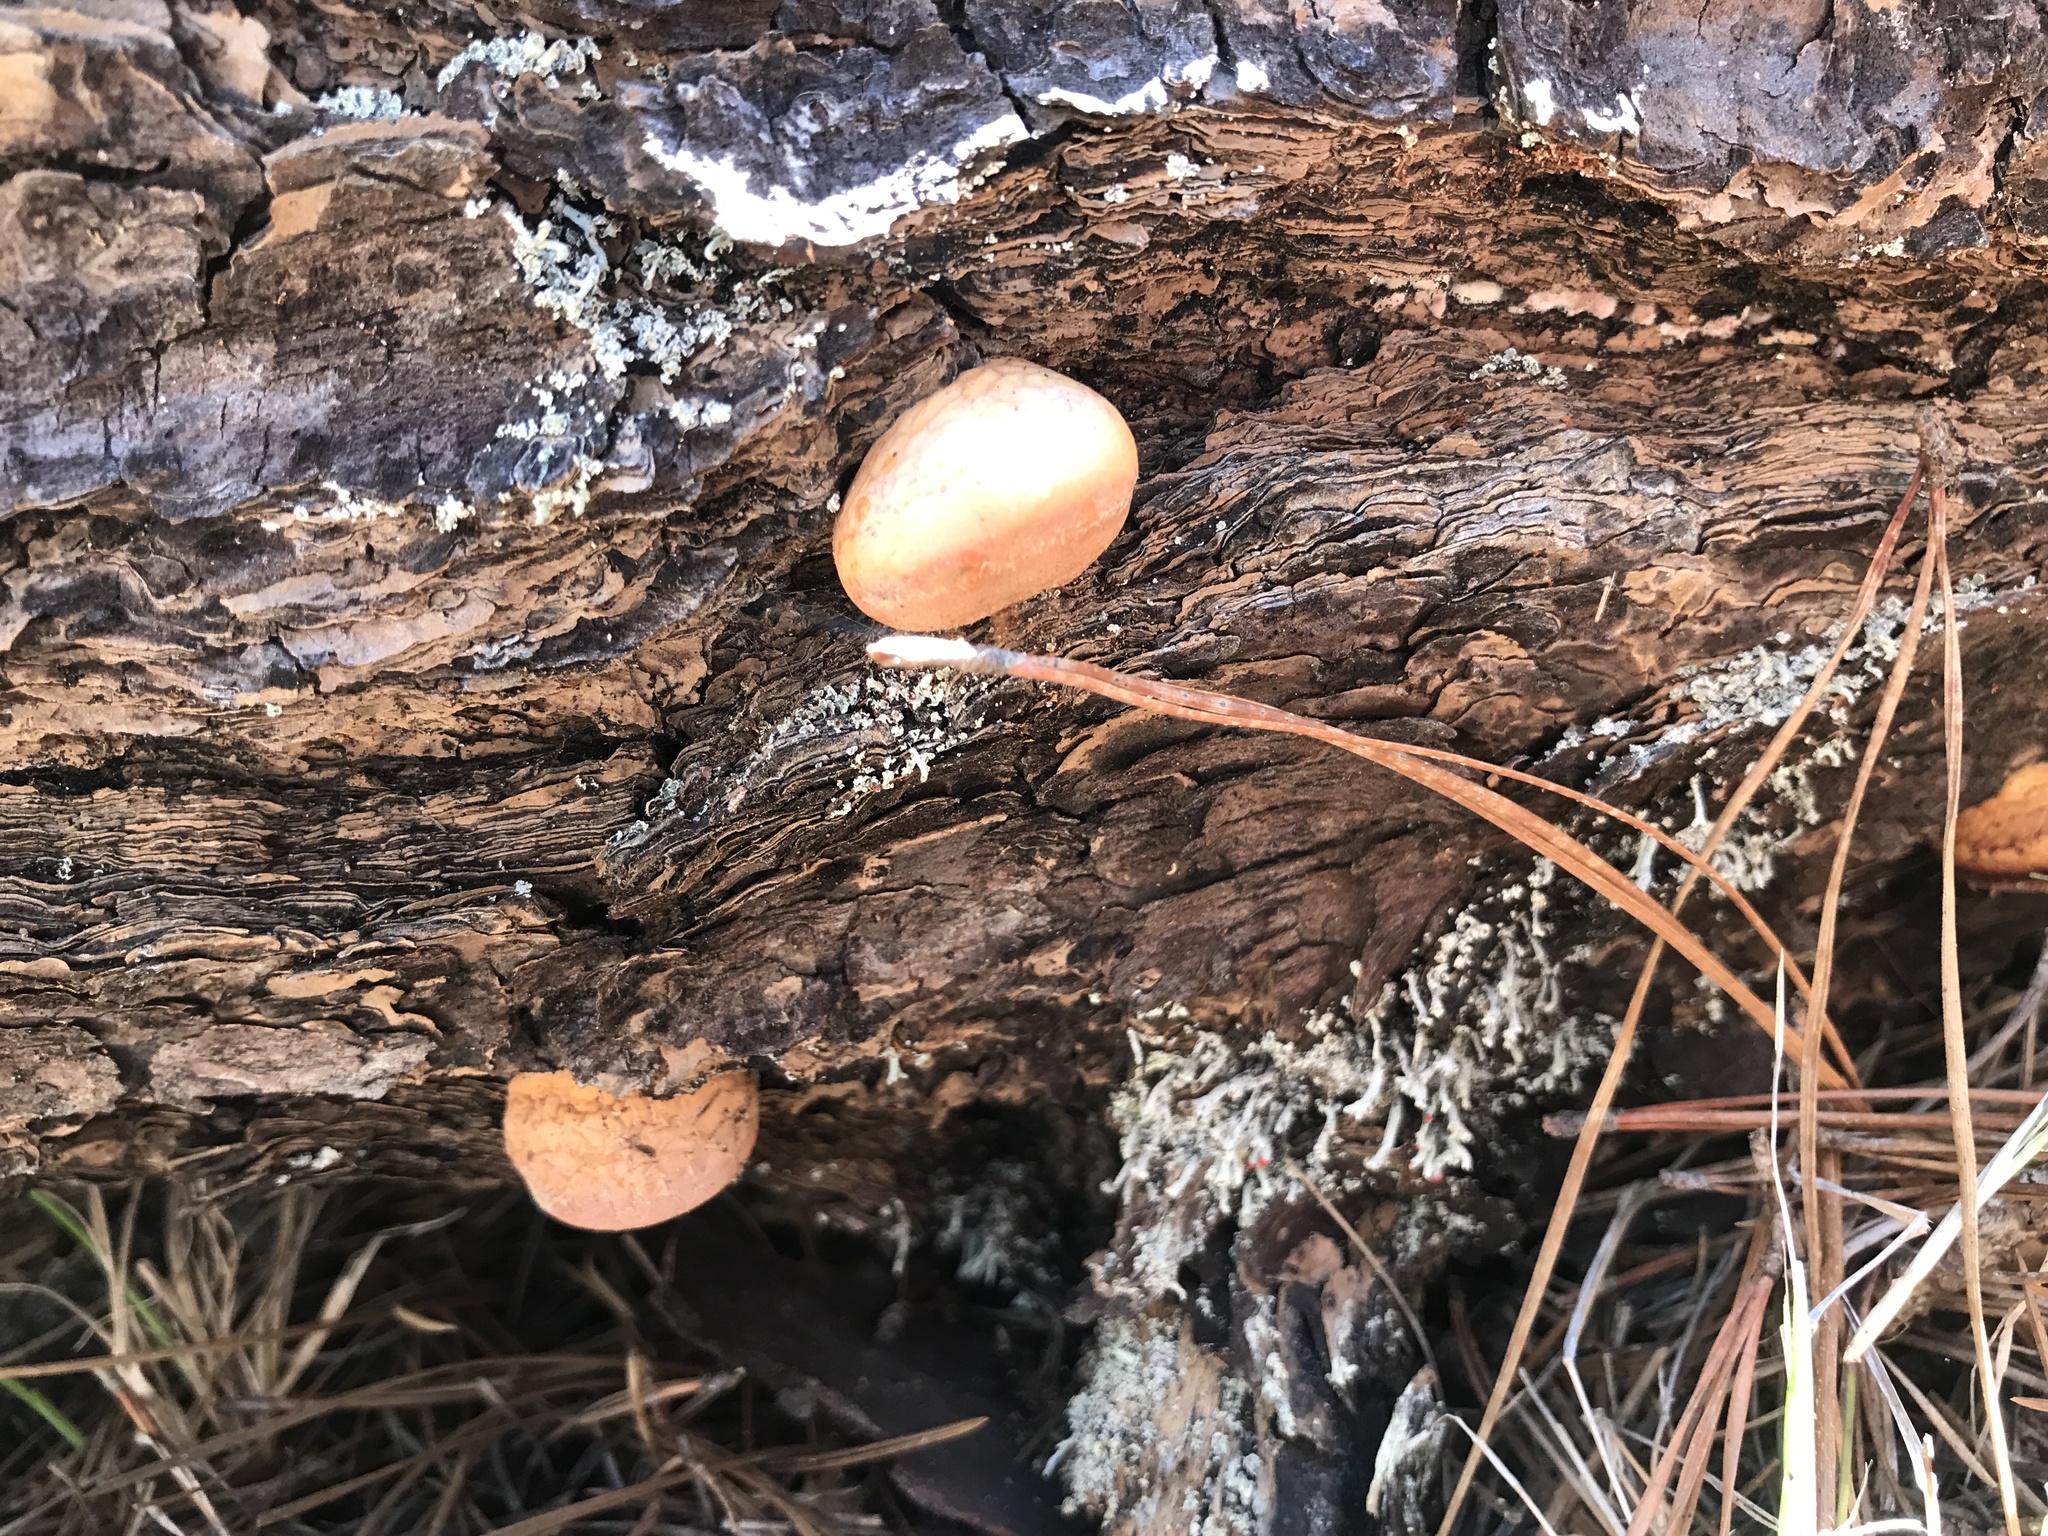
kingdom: Fungi
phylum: Basidiomycota
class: Agaricomycetes
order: Polyporales
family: Polyporaceae
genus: Cryptoporus
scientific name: Cryptoporus volvatus
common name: Veiled polypore
